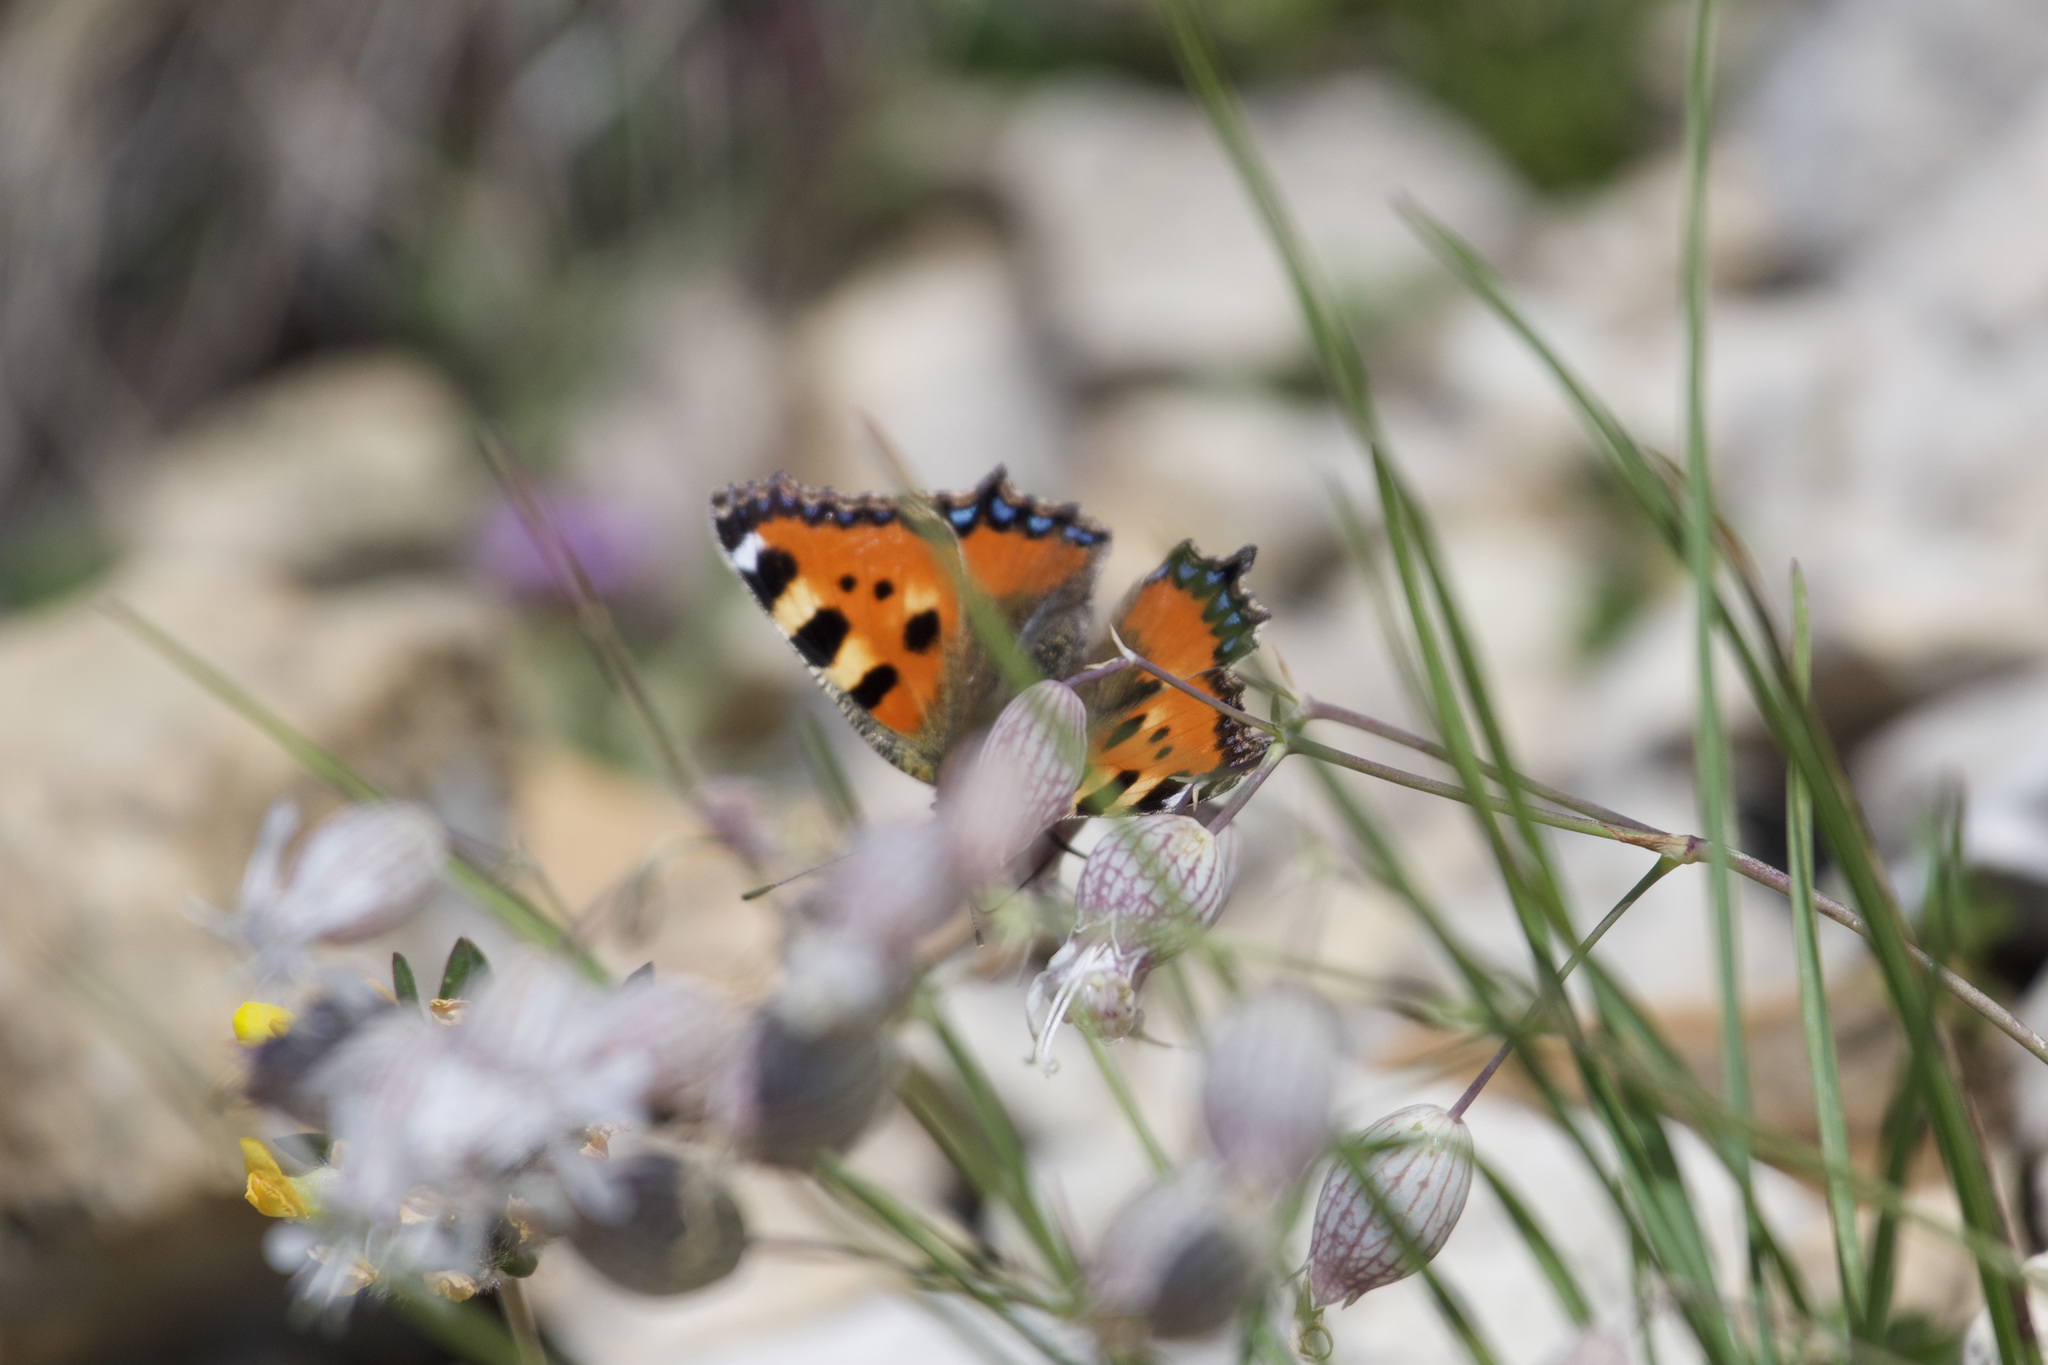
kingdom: Animalia
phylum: Arthropoda
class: Insecta
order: Lepidoptera
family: Nymphalidae
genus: Aglais
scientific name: Aglais urticae
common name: Small tortoiseshell
